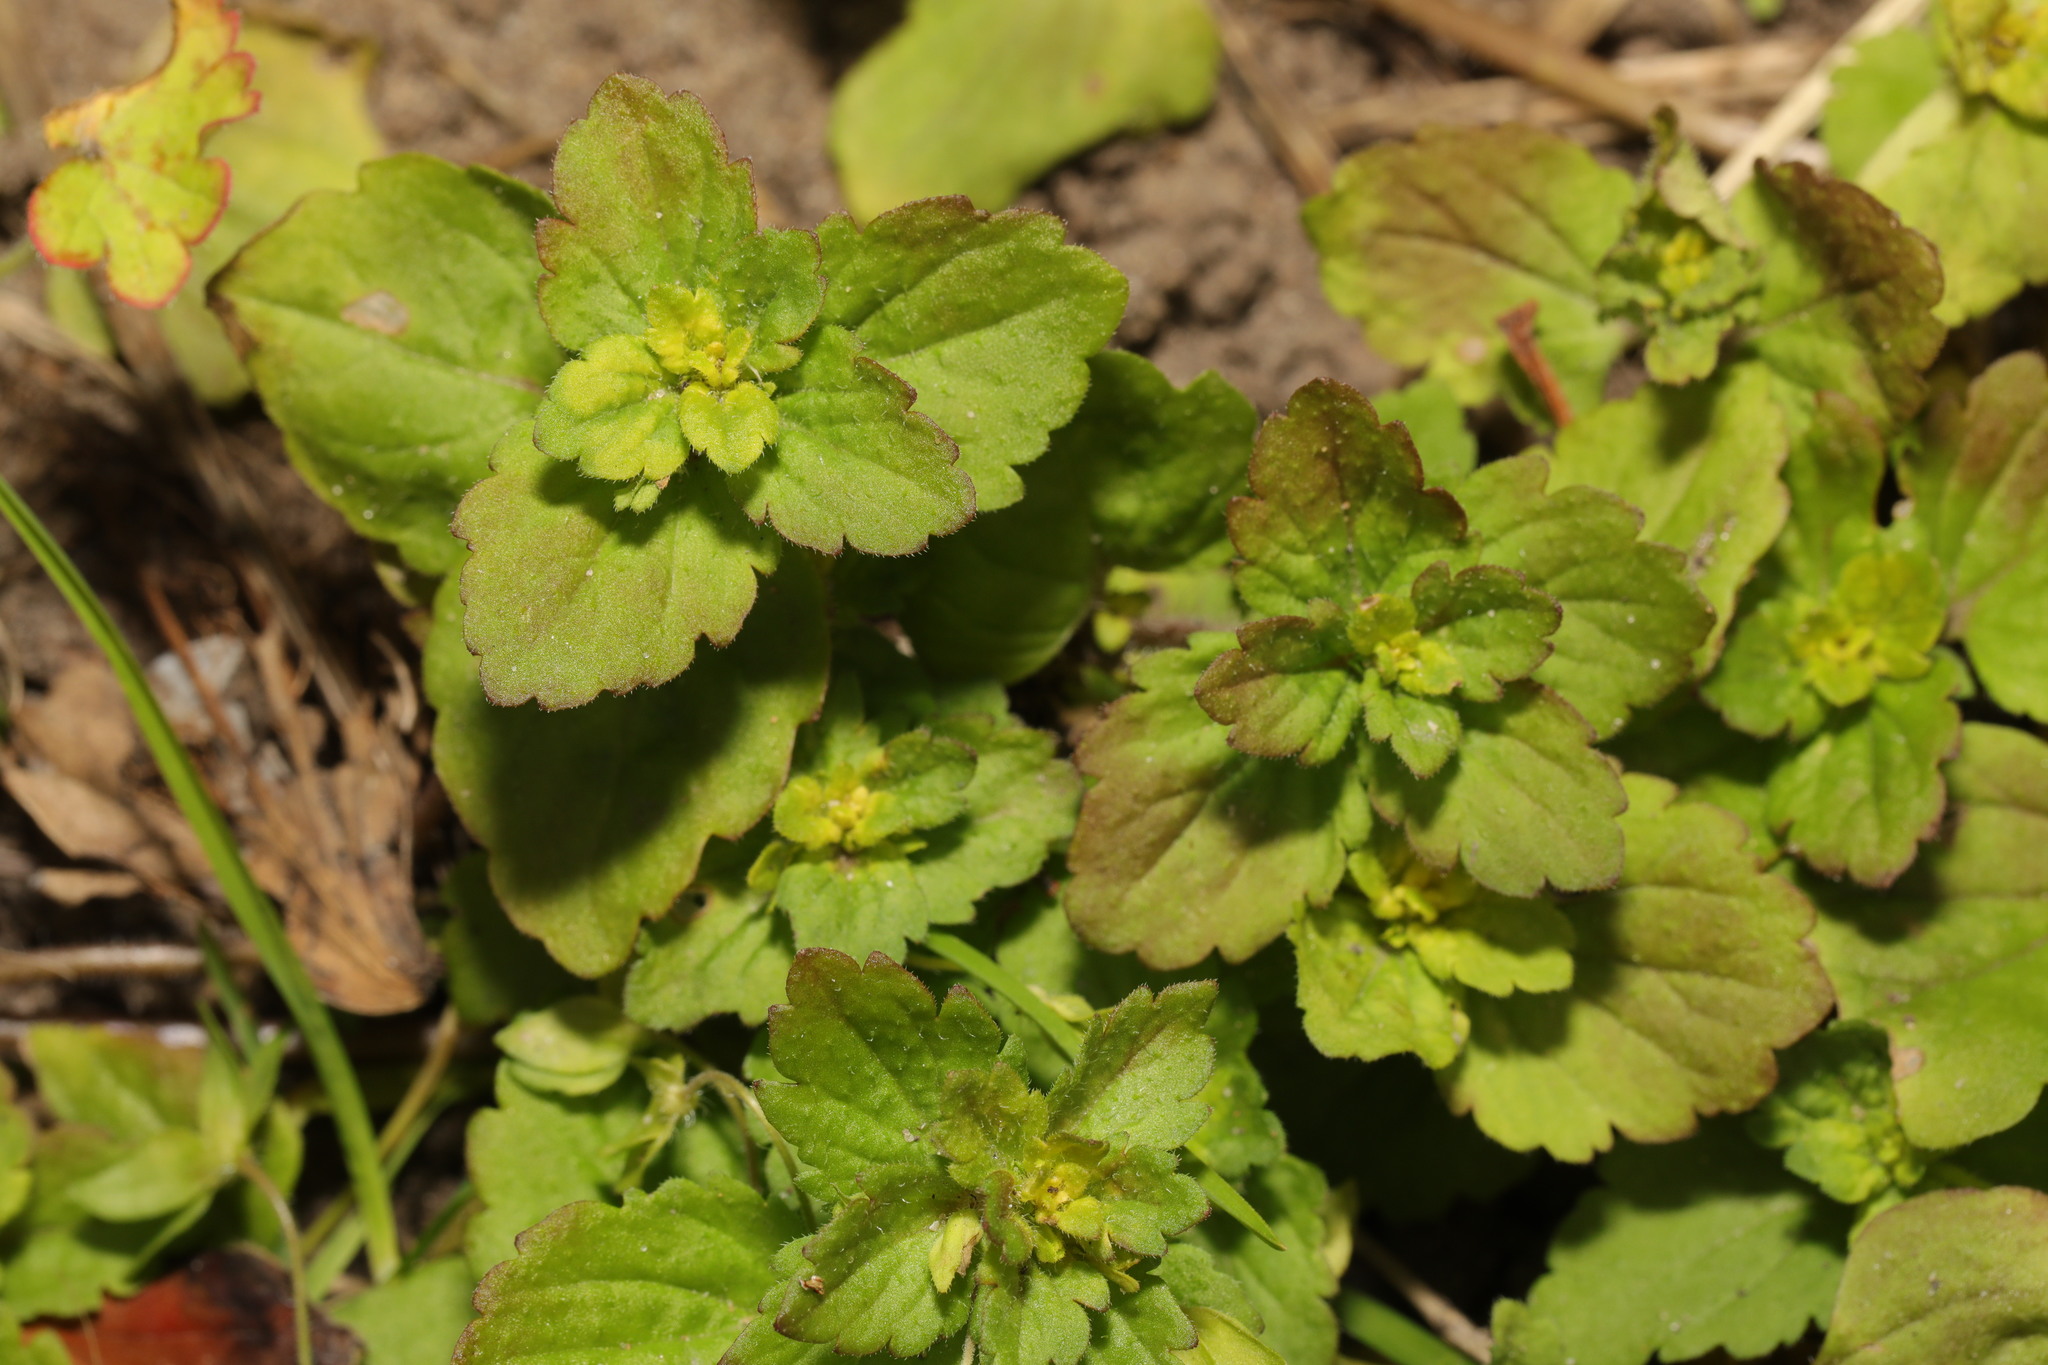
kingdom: Plantae
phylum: Tracheophyta
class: Magnoliopsida
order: Lamiales
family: Plantaginaceae
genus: Veronica
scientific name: Veronica arvensis
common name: Corn speedwell
